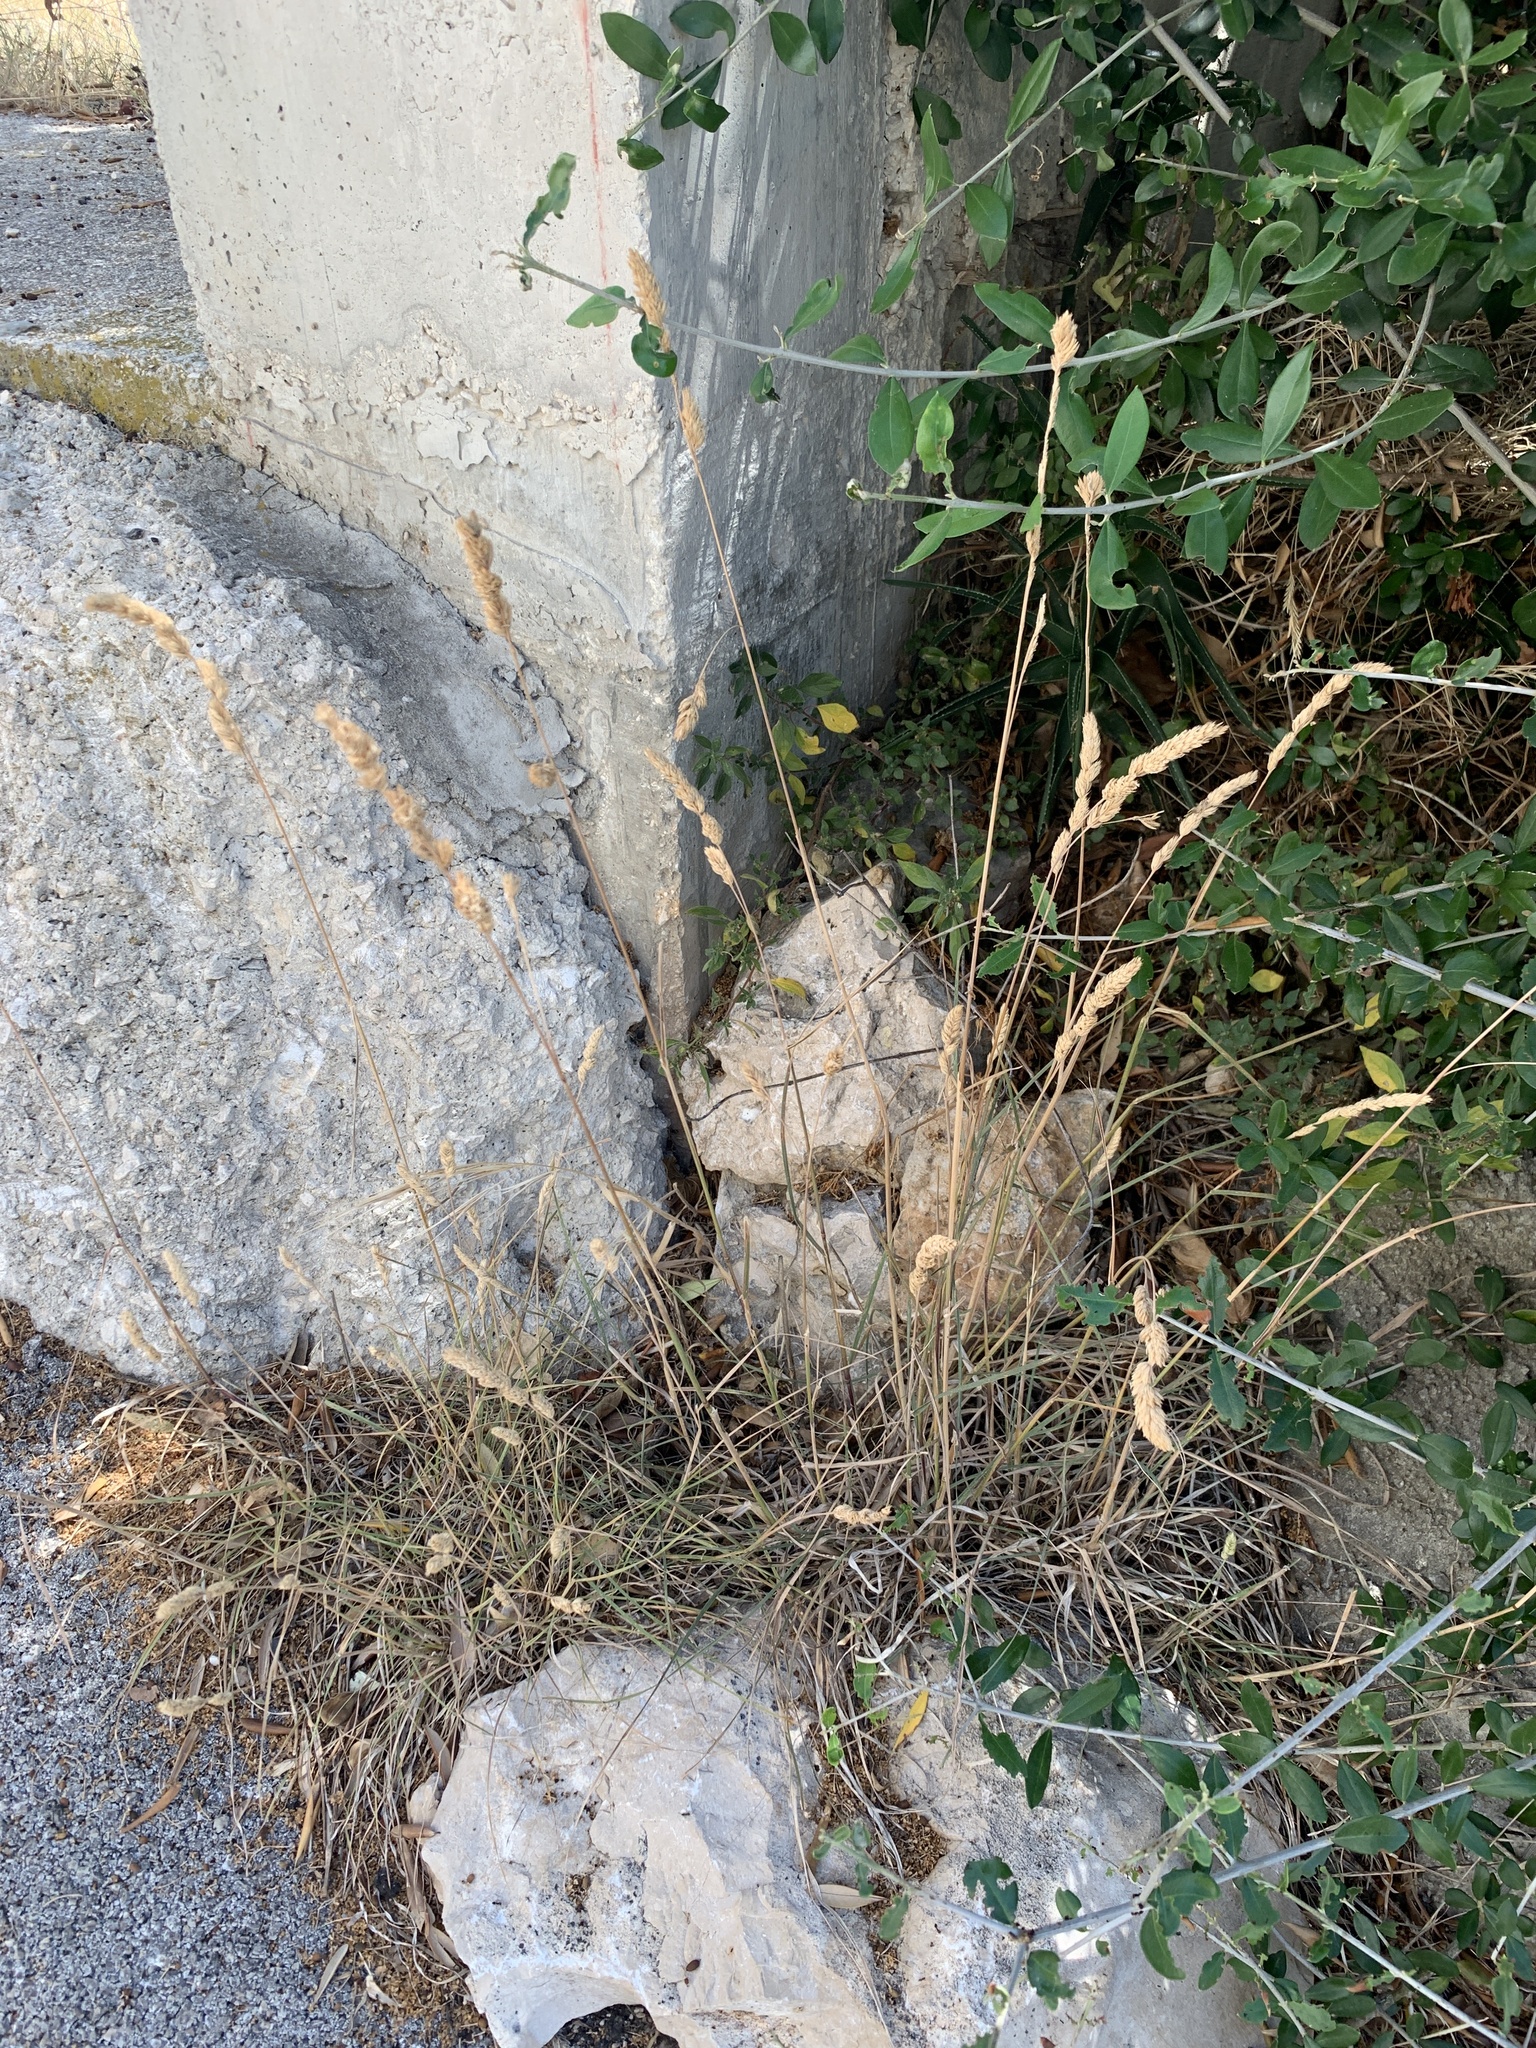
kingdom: Plantae
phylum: Tracheophyta
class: Liliopsida
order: Poales
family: Poaceae
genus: Dactylis
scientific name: Dactylis glomerata
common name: Orchardgrass
